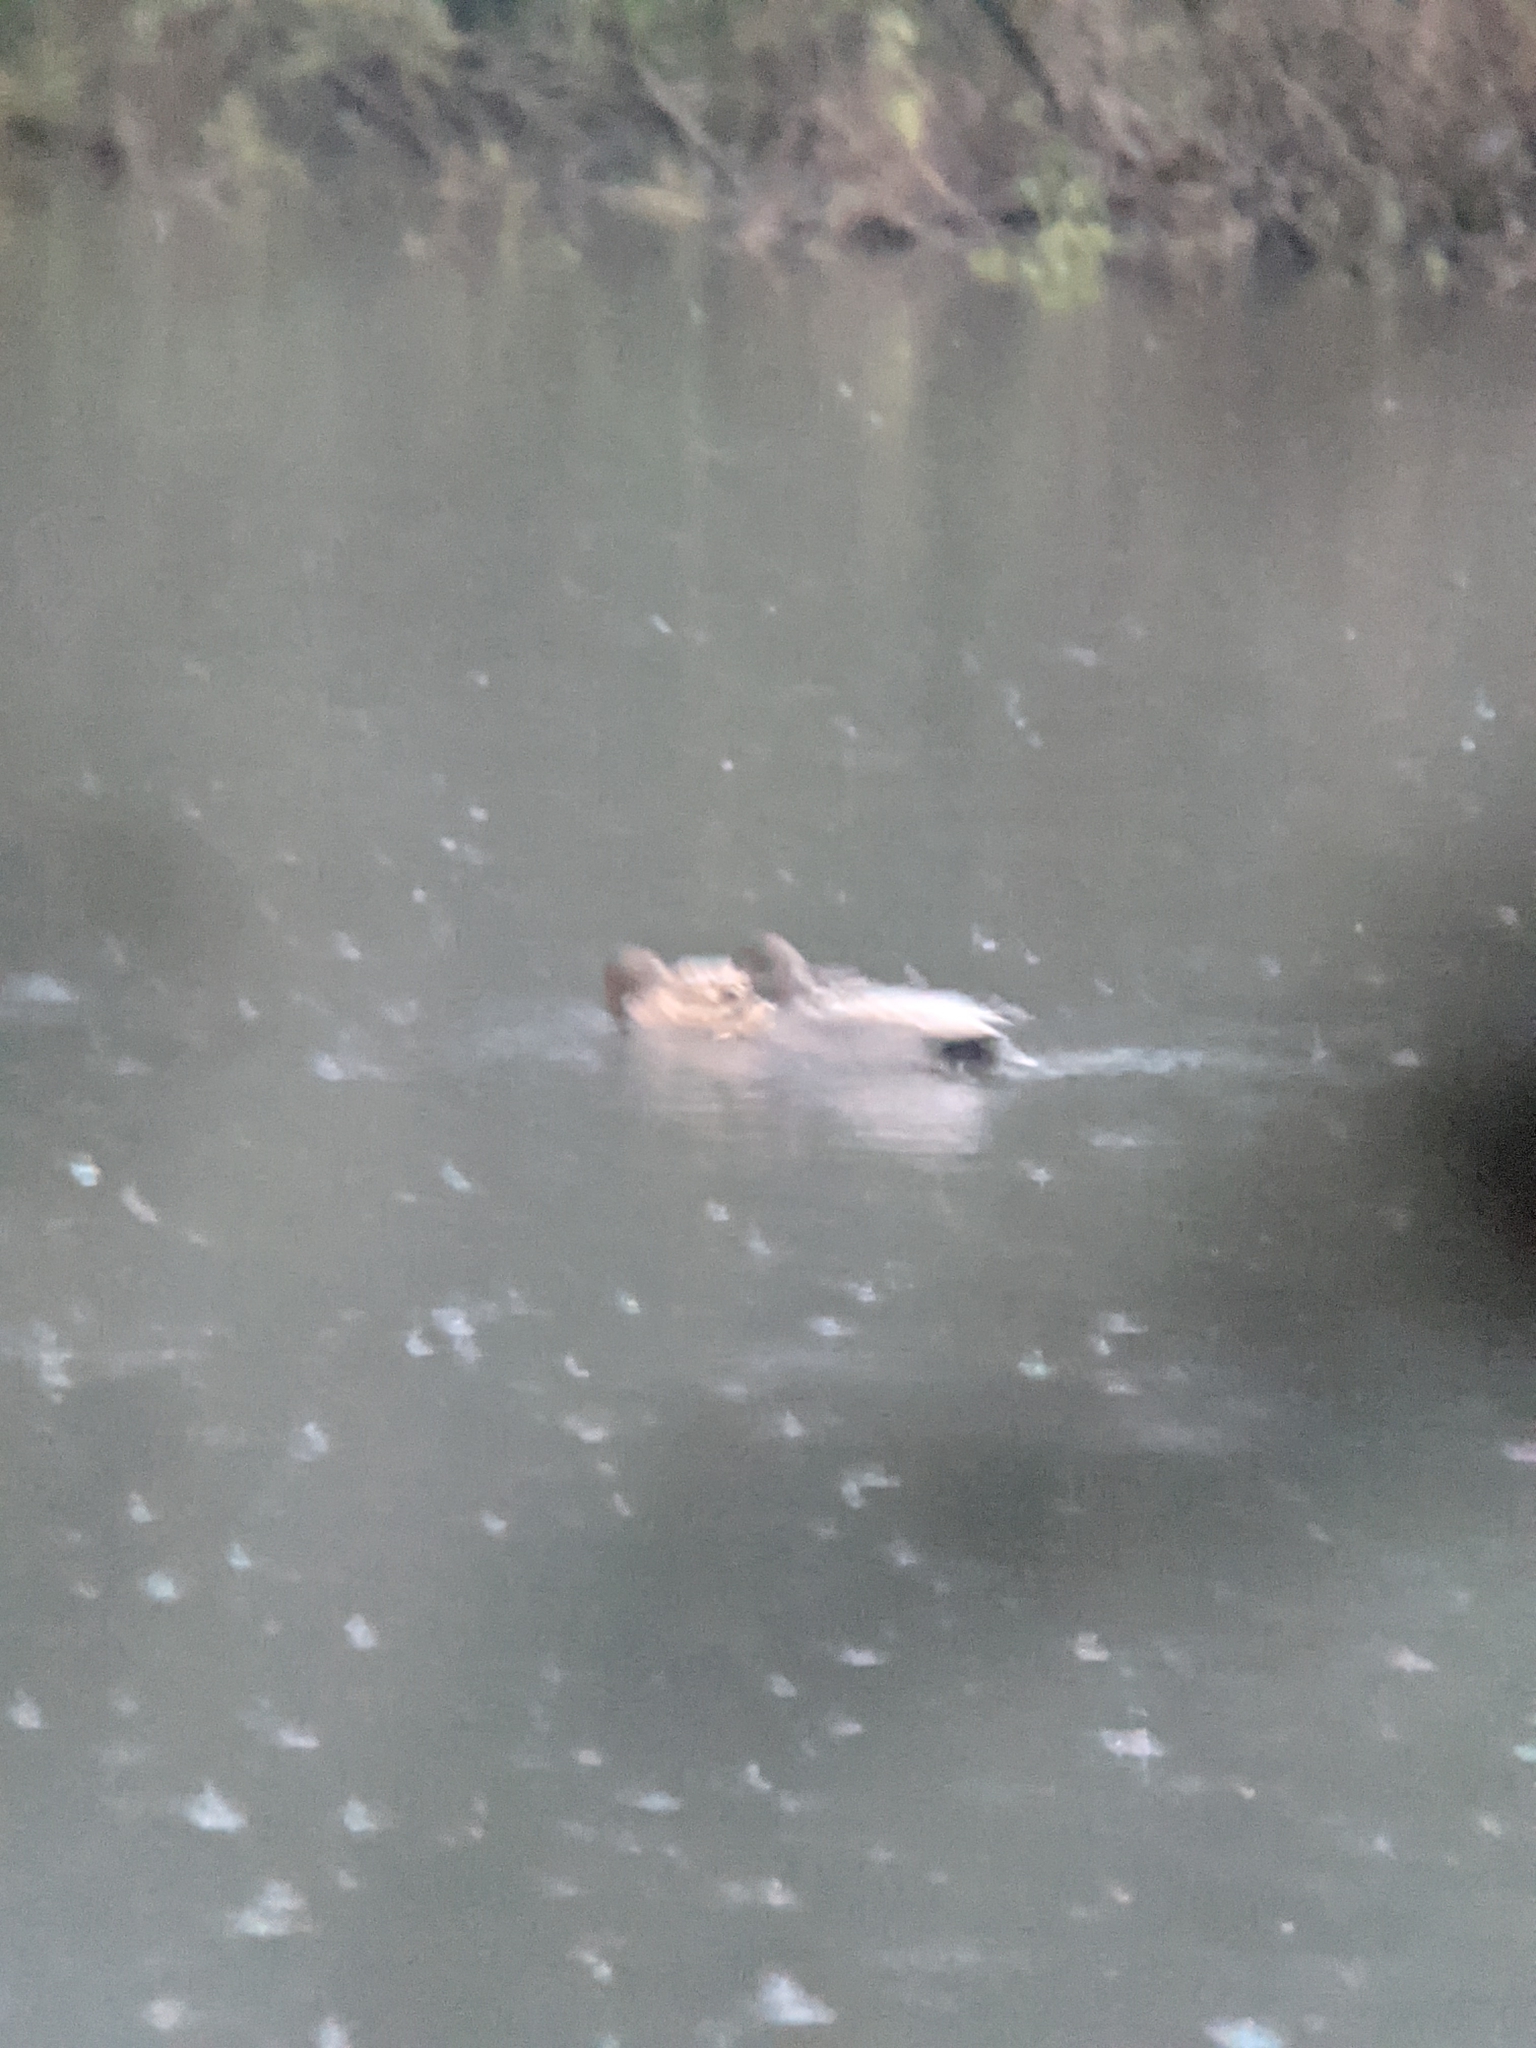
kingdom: Animalia
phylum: Chordata
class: Aves
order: Anseriformes
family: Anatidae
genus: Mareca
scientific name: Mareca strepera
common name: Gadwall
